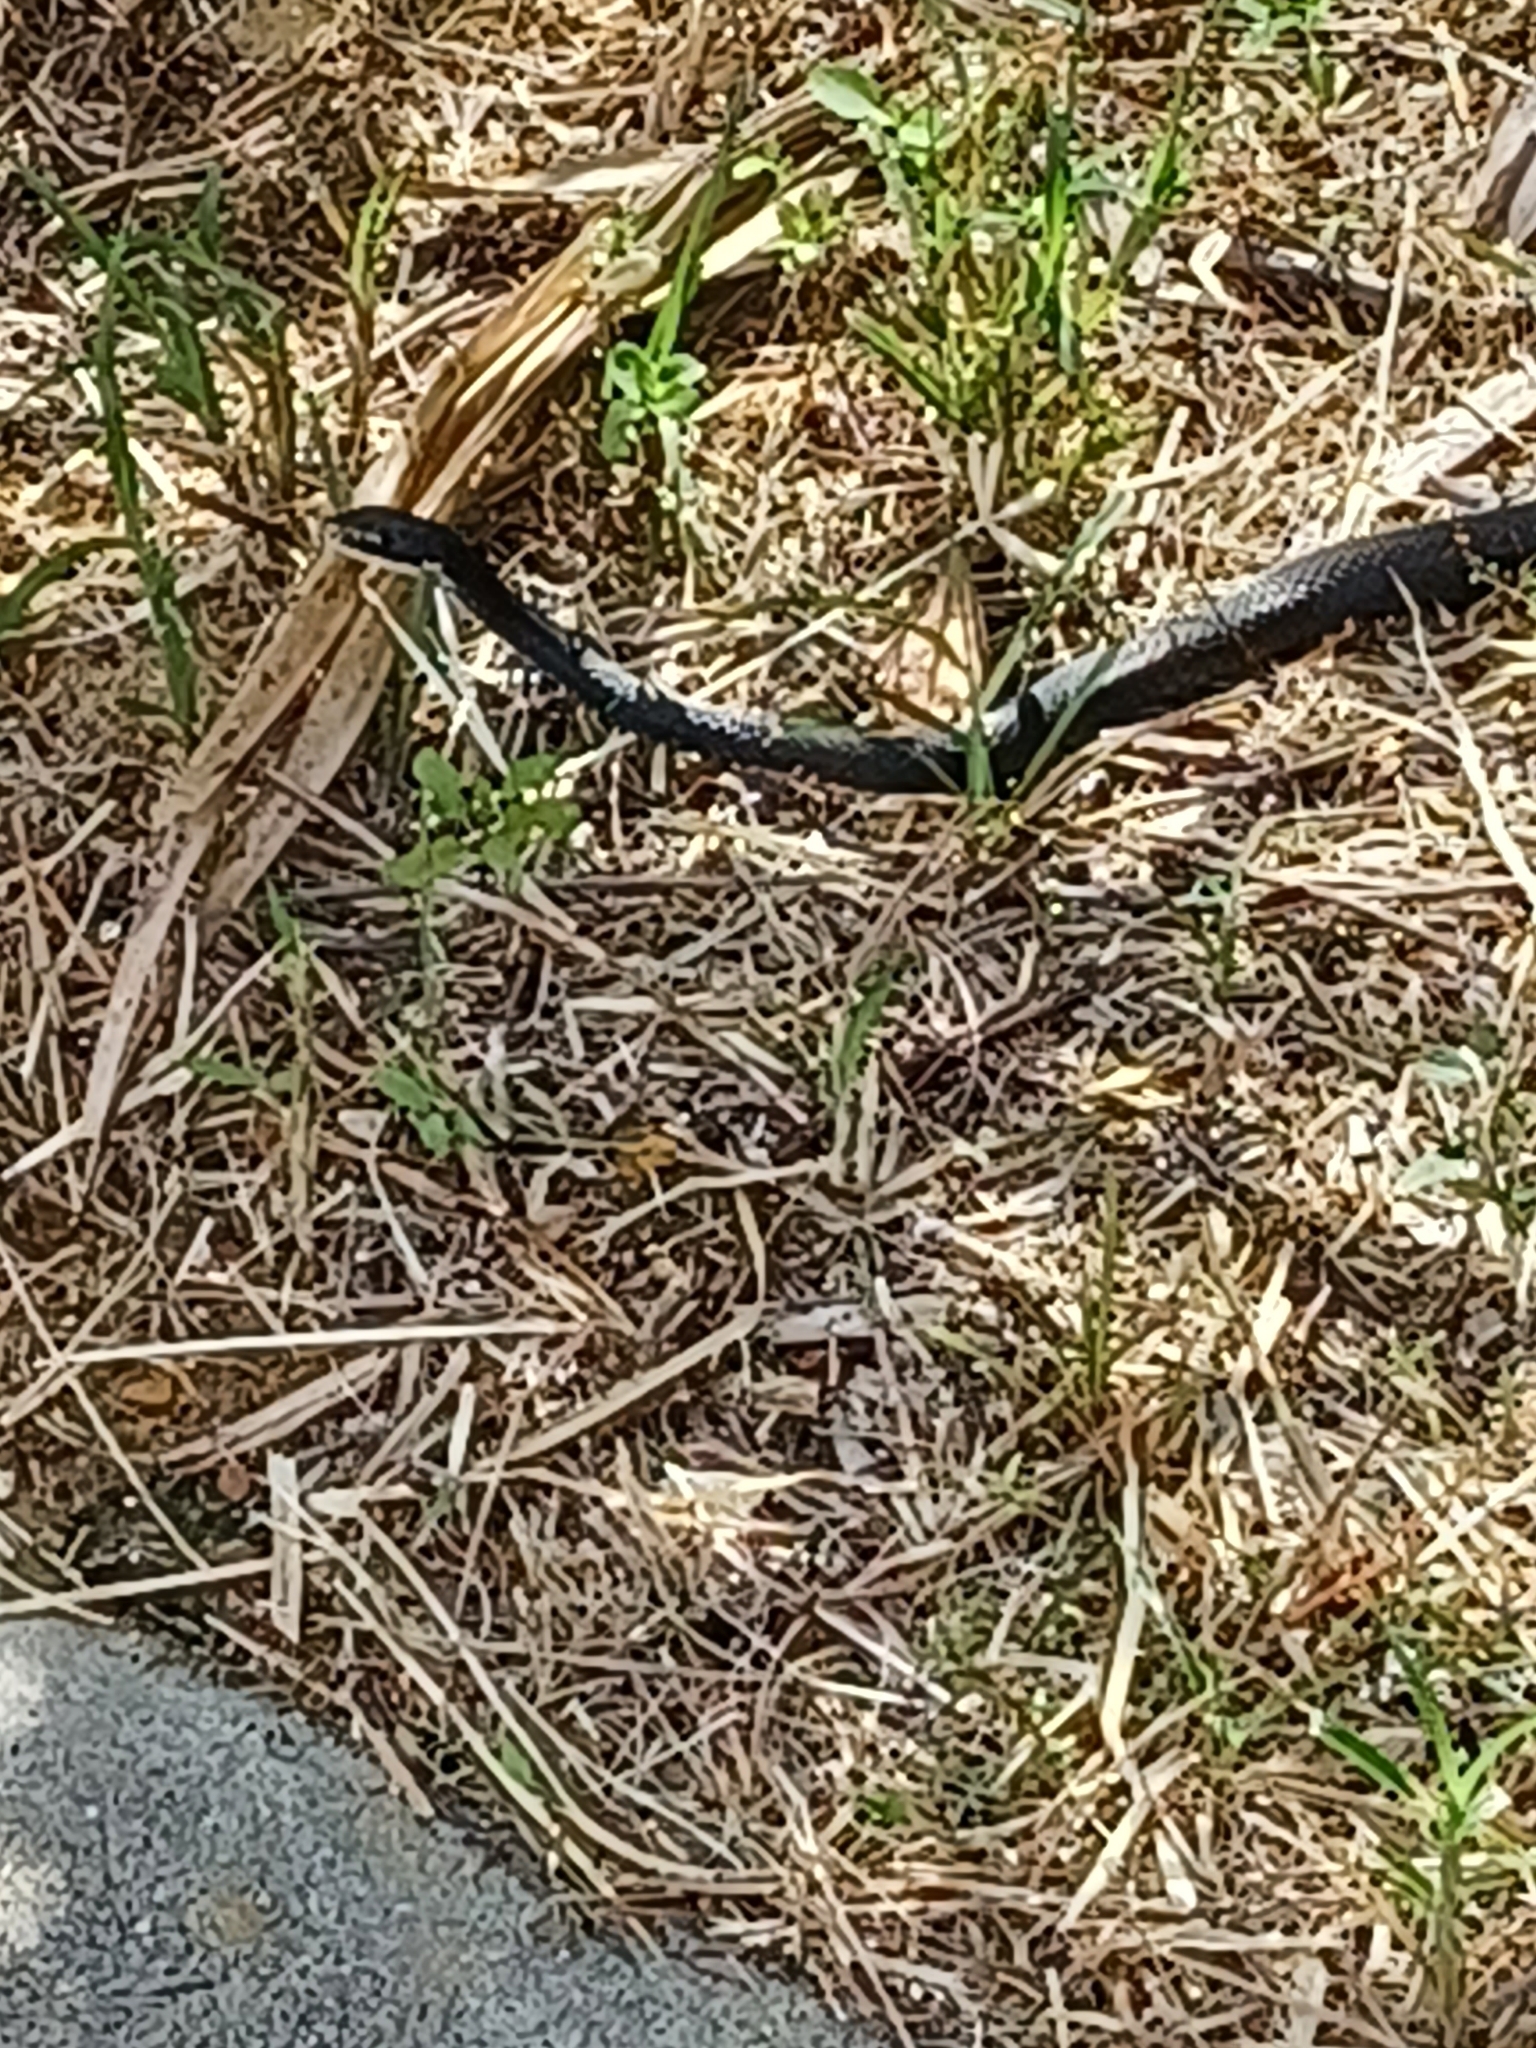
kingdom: Animalia
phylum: Chordata
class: Squamata
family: Colubridae
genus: Coluber
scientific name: Coluber constrictor
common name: Eastern racer
